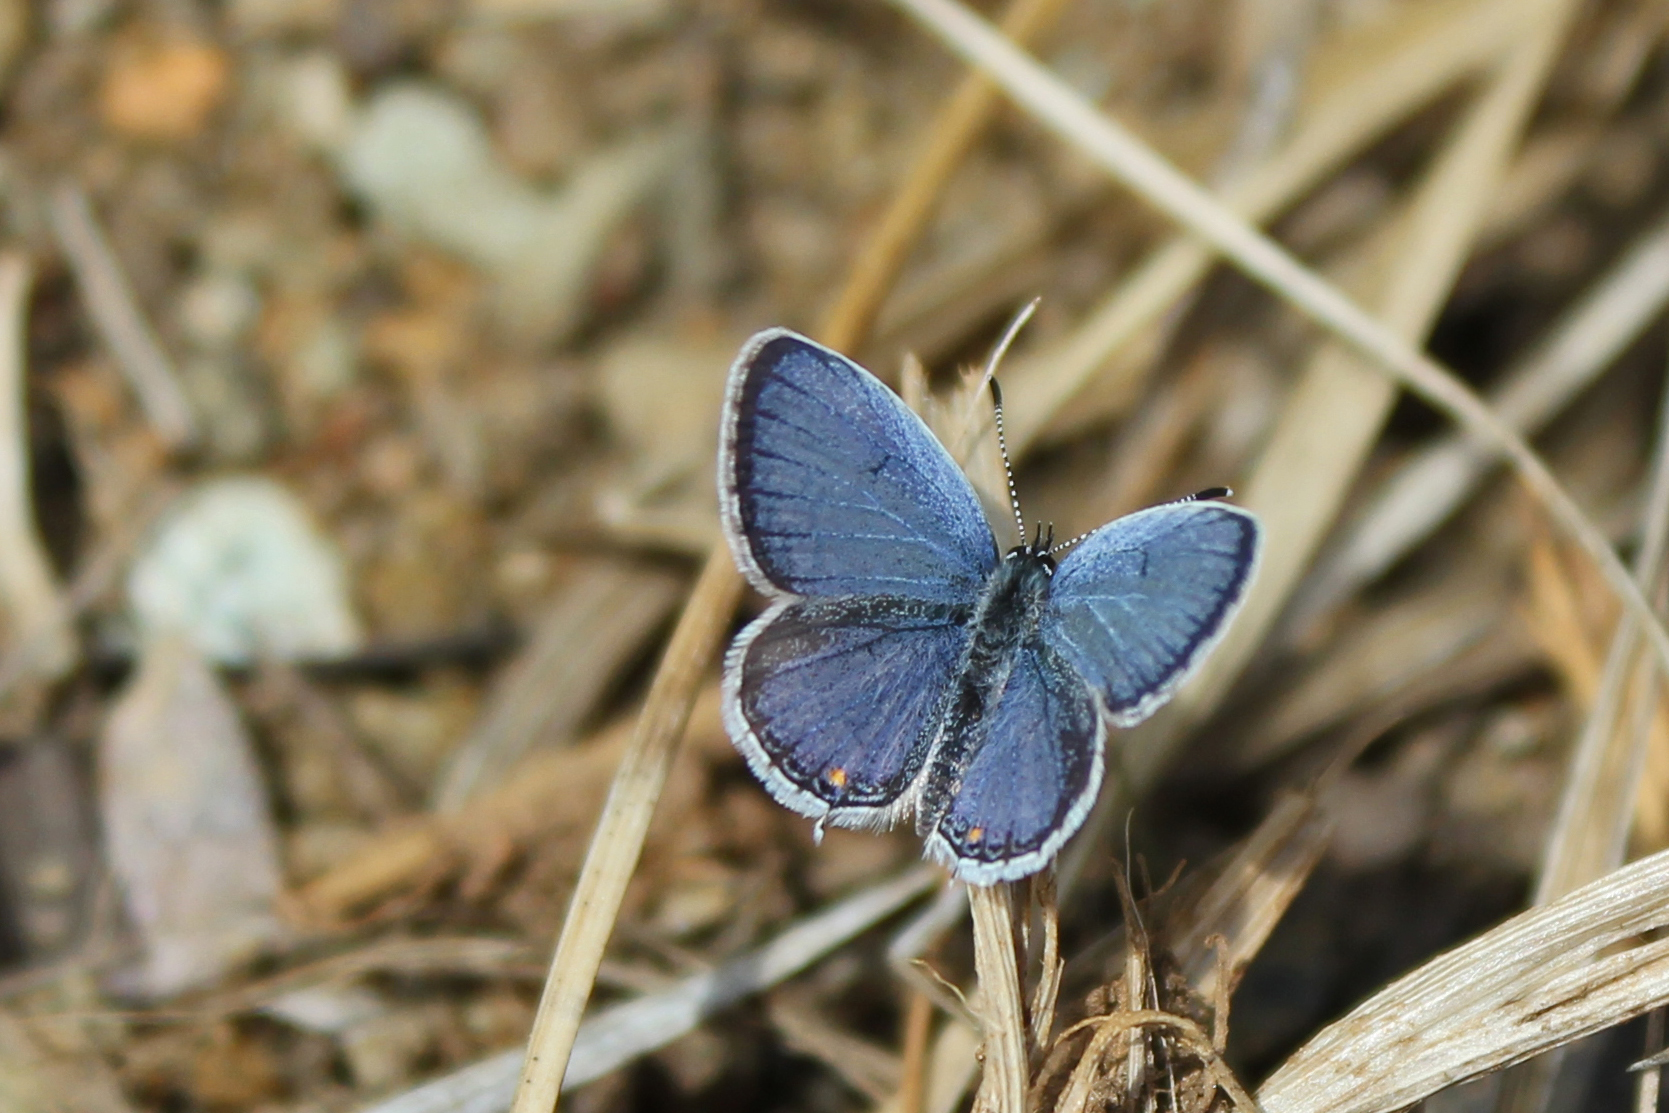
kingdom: Animalia
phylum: Arthropoda
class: Insecta
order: Lepidoptera
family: Lycaenidae
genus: Elkalyce
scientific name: Elkalyce comyntas
